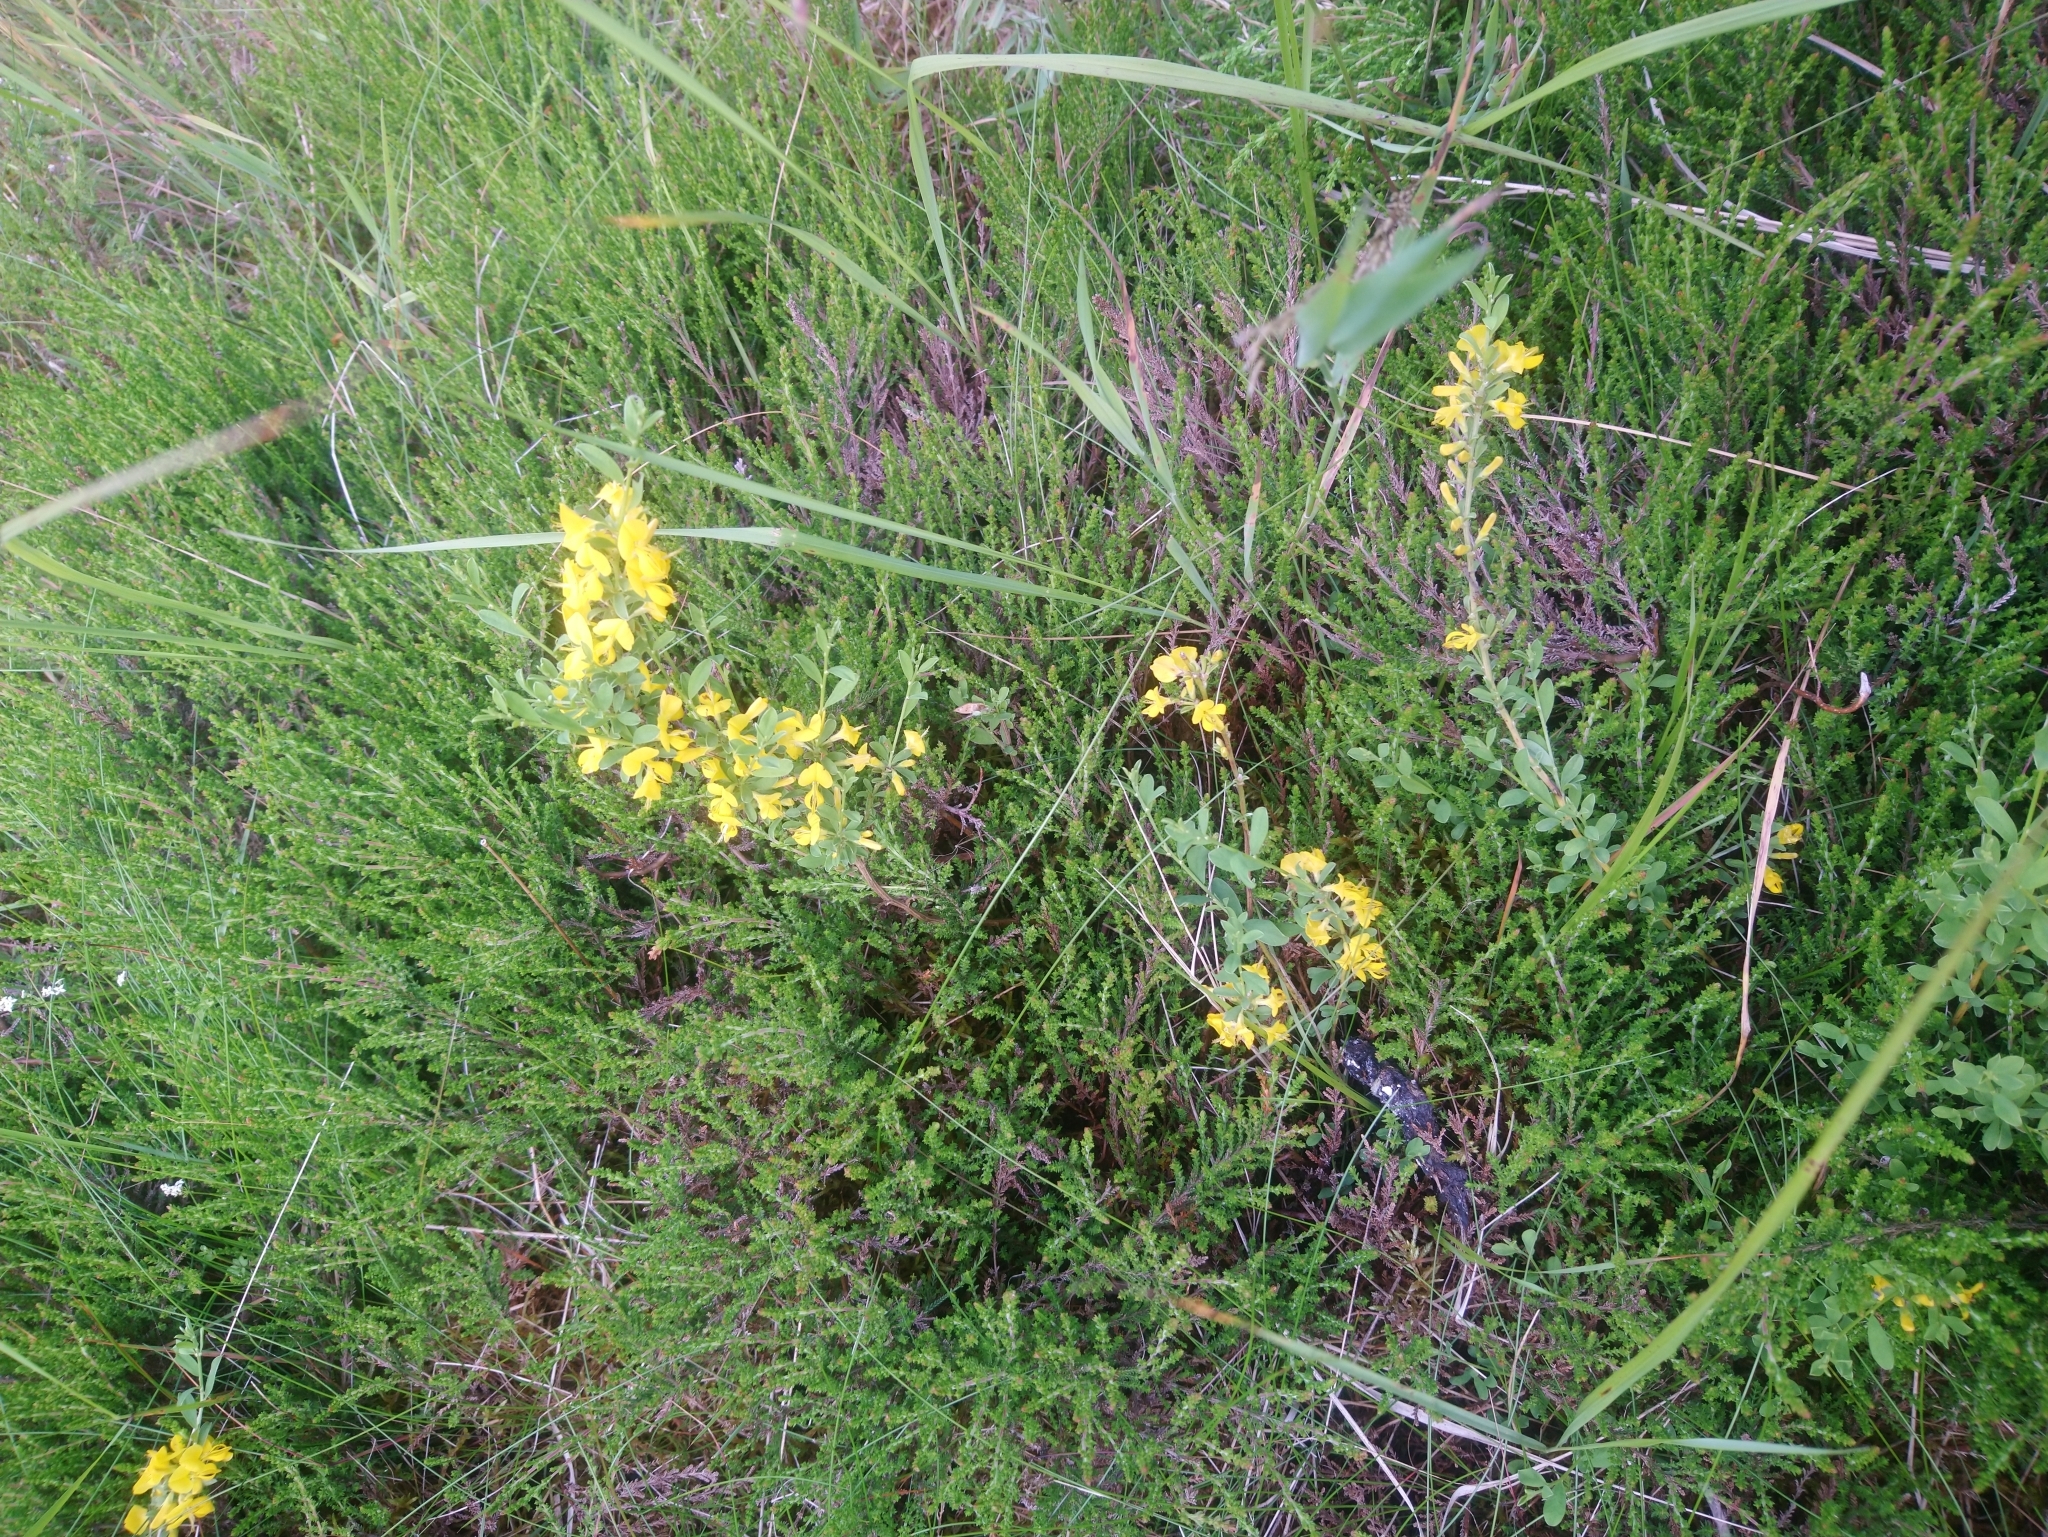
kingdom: Plantae
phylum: Tracheophyta
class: Magnoliopsida
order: Fabales
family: Fabaceae
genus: Genista
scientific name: Genista pilosa
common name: Hairy greenweed
